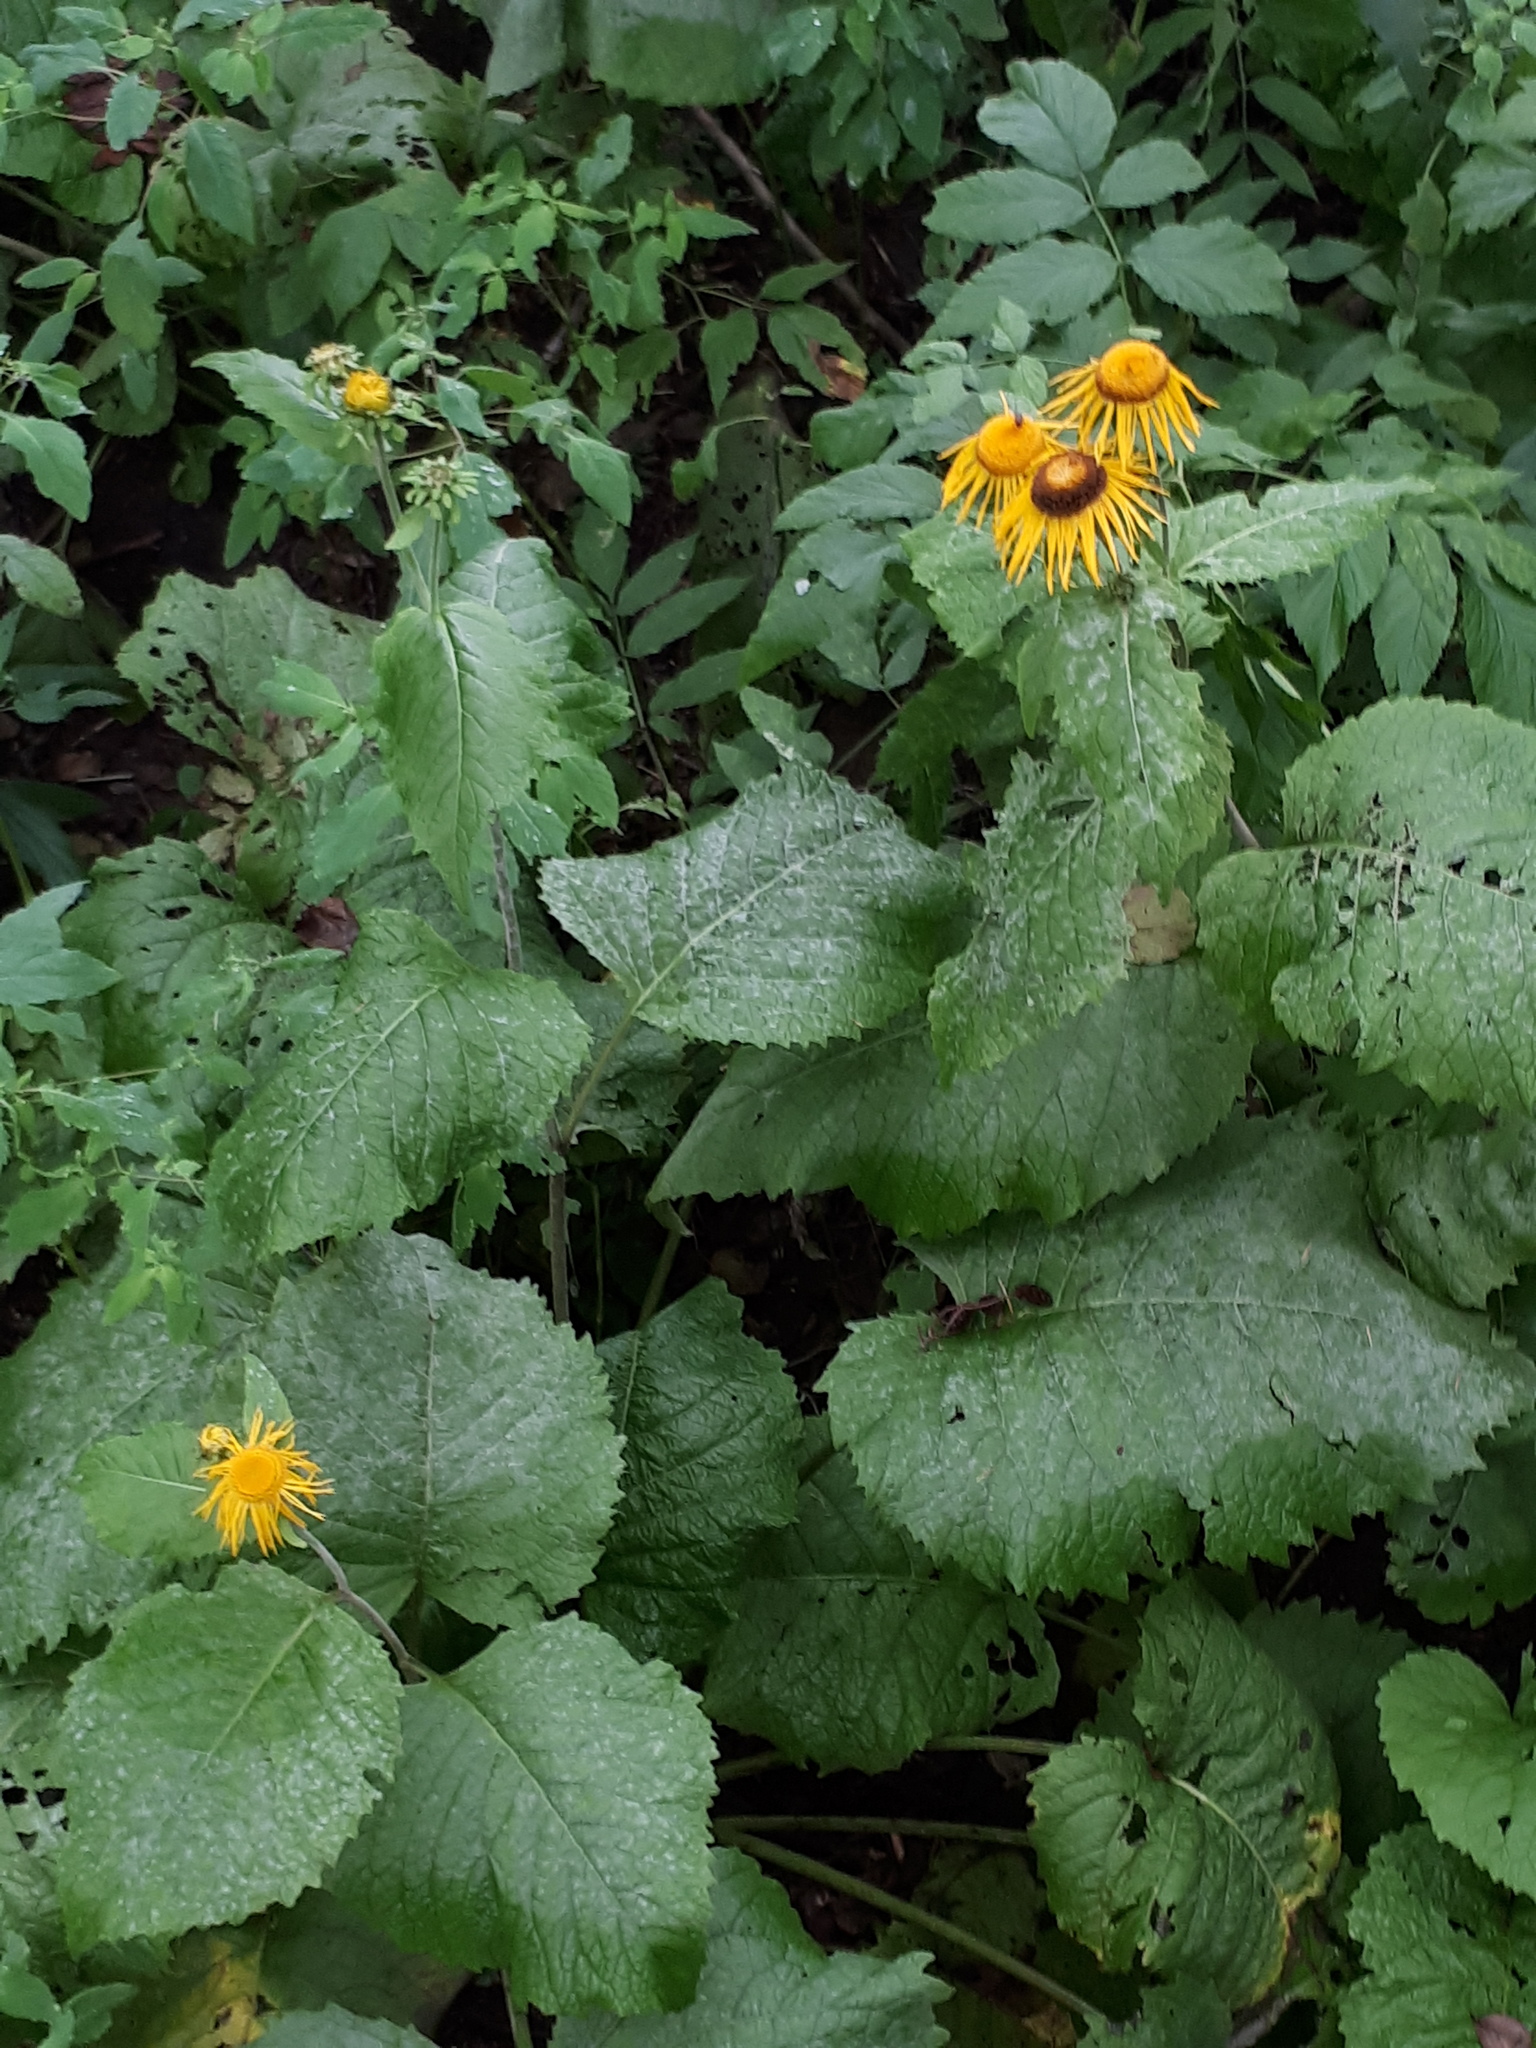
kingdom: Plantae
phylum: Tracheophyta
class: Magnoliopsida
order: Asterales
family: Asteraceae
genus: Telekia
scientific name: Telekia speciosa
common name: Yellow oxeye
